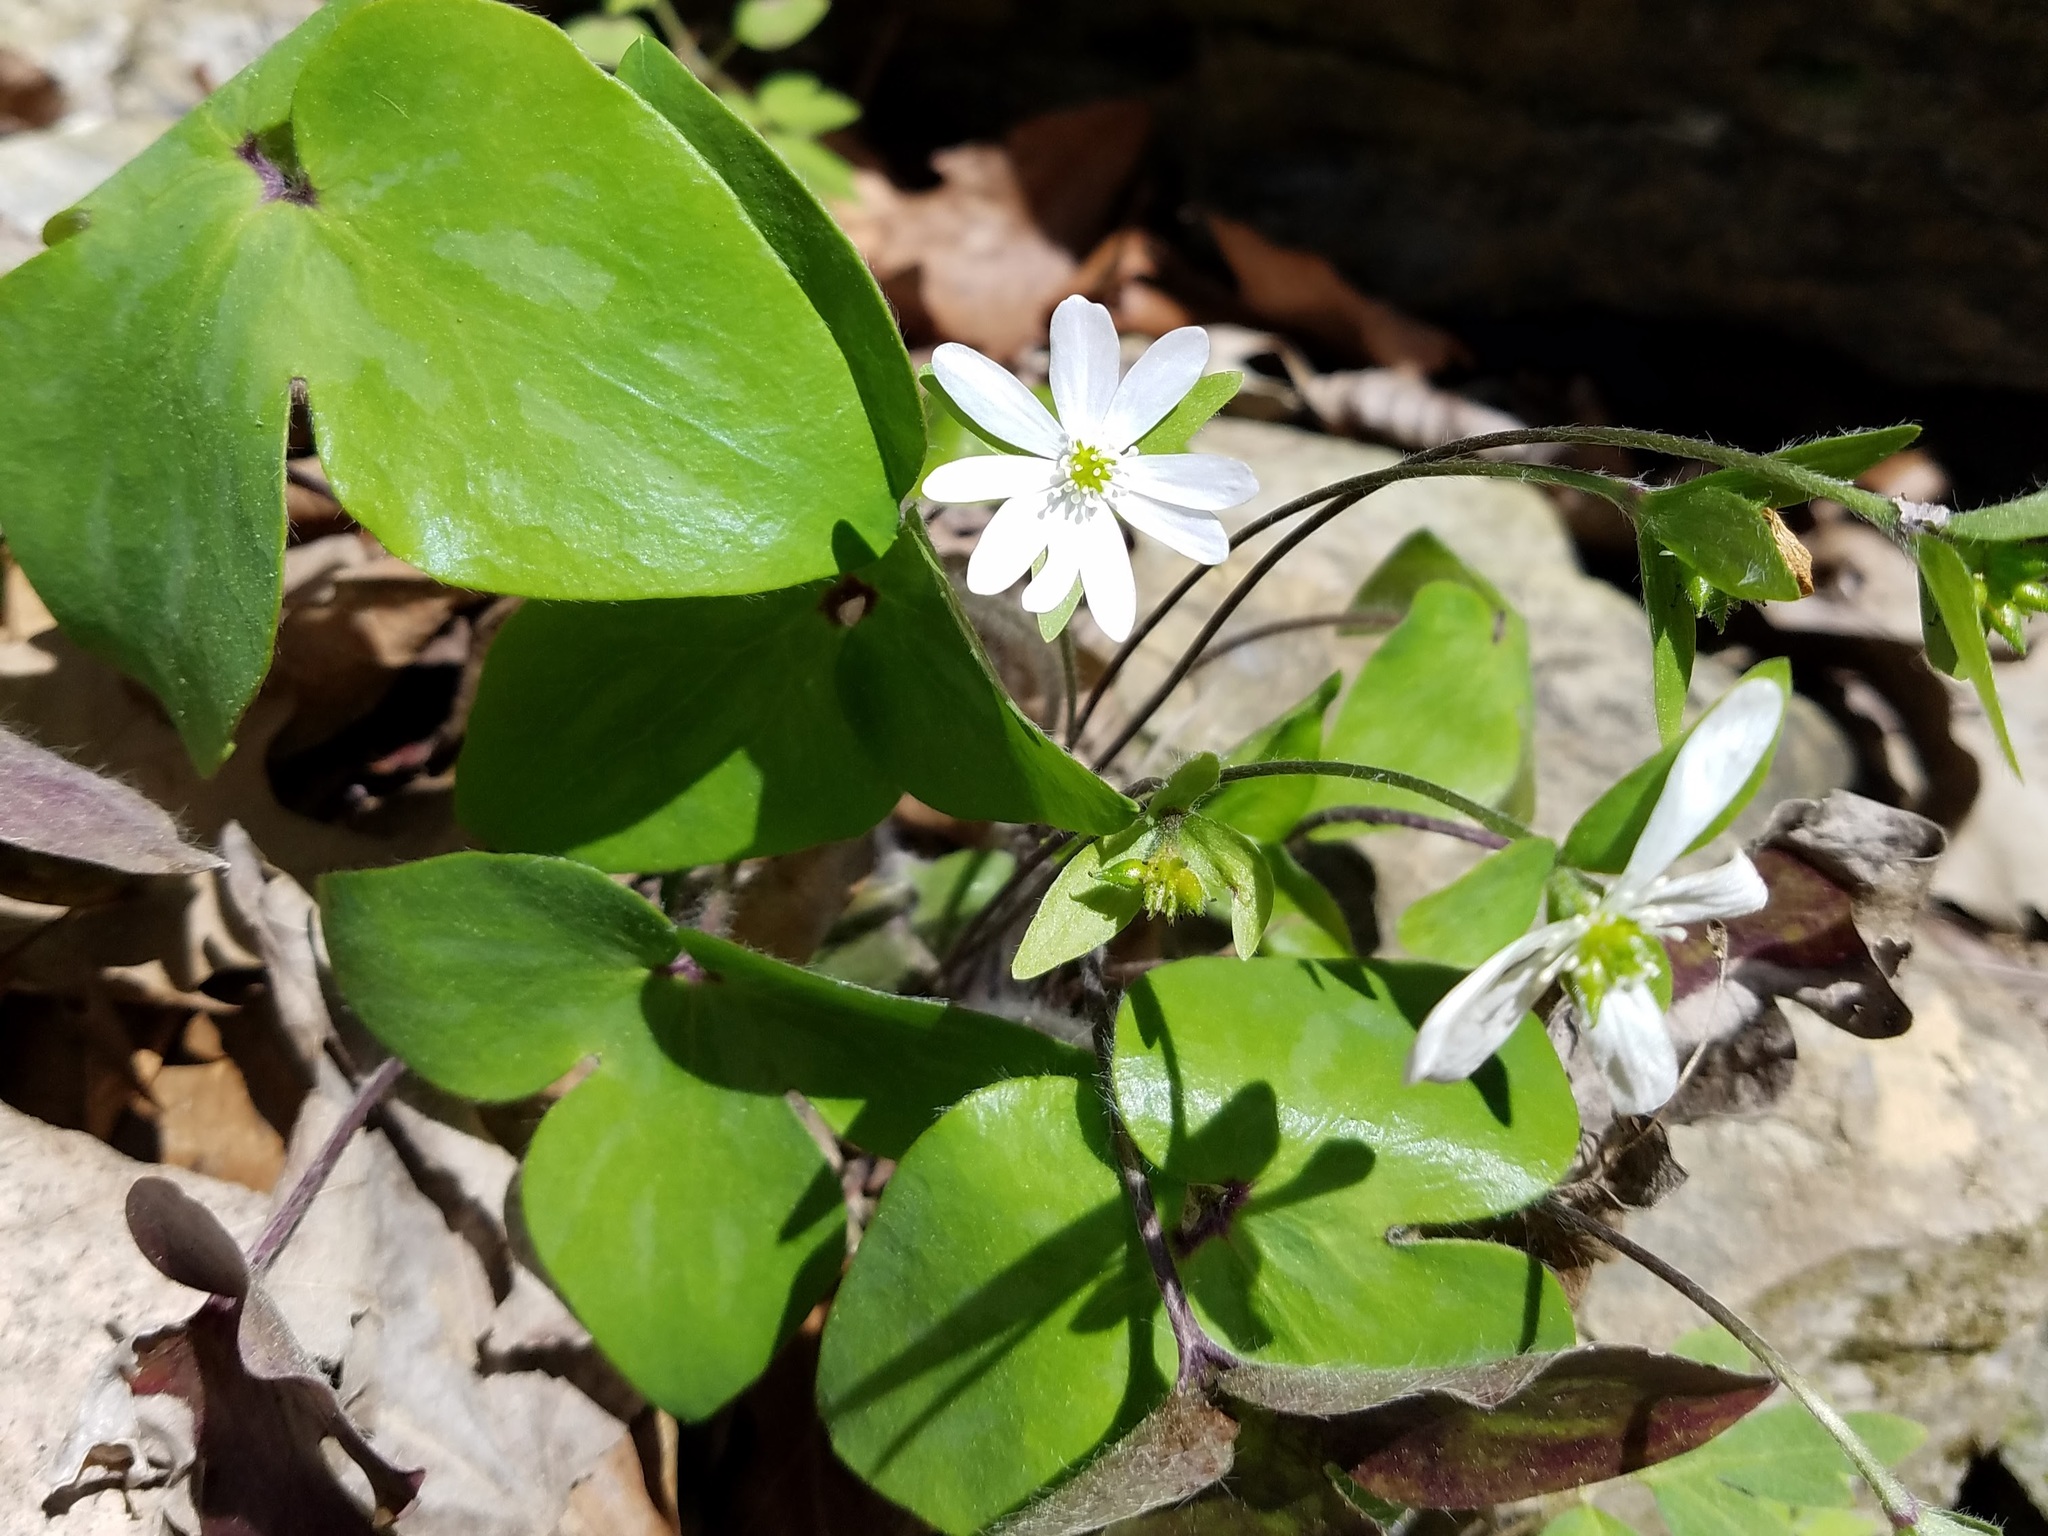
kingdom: Plantae
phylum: Tracheophyta
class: Magnoliopsida
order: Ranunculales
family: Ranunculaceae
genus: Hepatica
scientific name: Hepatica acutiloba
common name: Sharp-lobed hepatica
